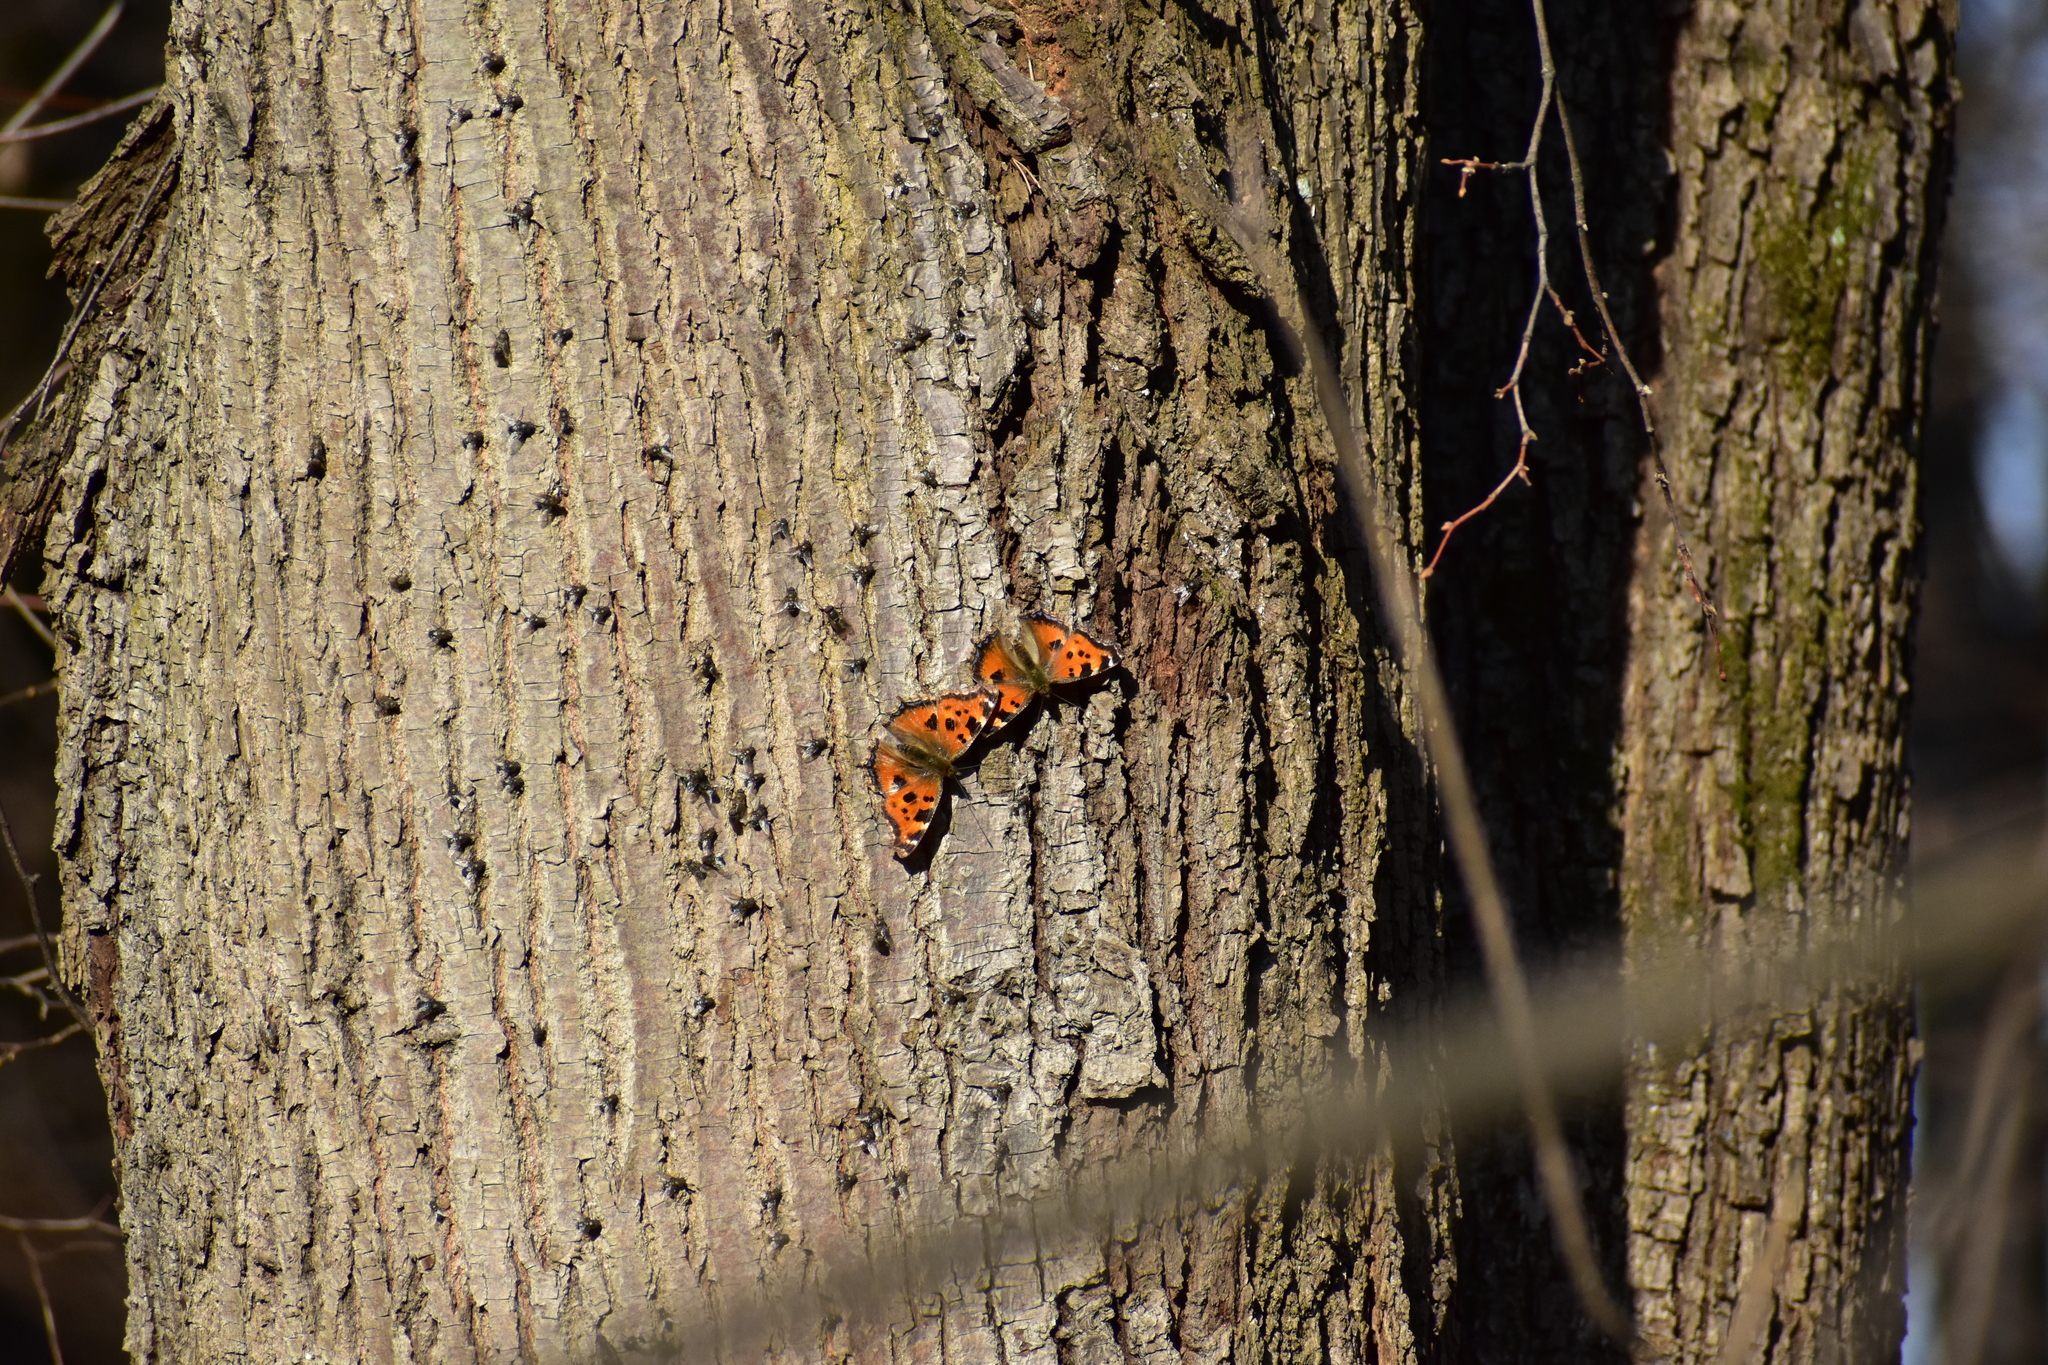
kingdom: Animalia
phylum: Arthropoda
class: Insecta
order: Lepidoptera
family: Nymphalidae
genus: Nymphalis
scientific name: Nymphalis xanthomelas
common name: Scarce tortoiseshell
